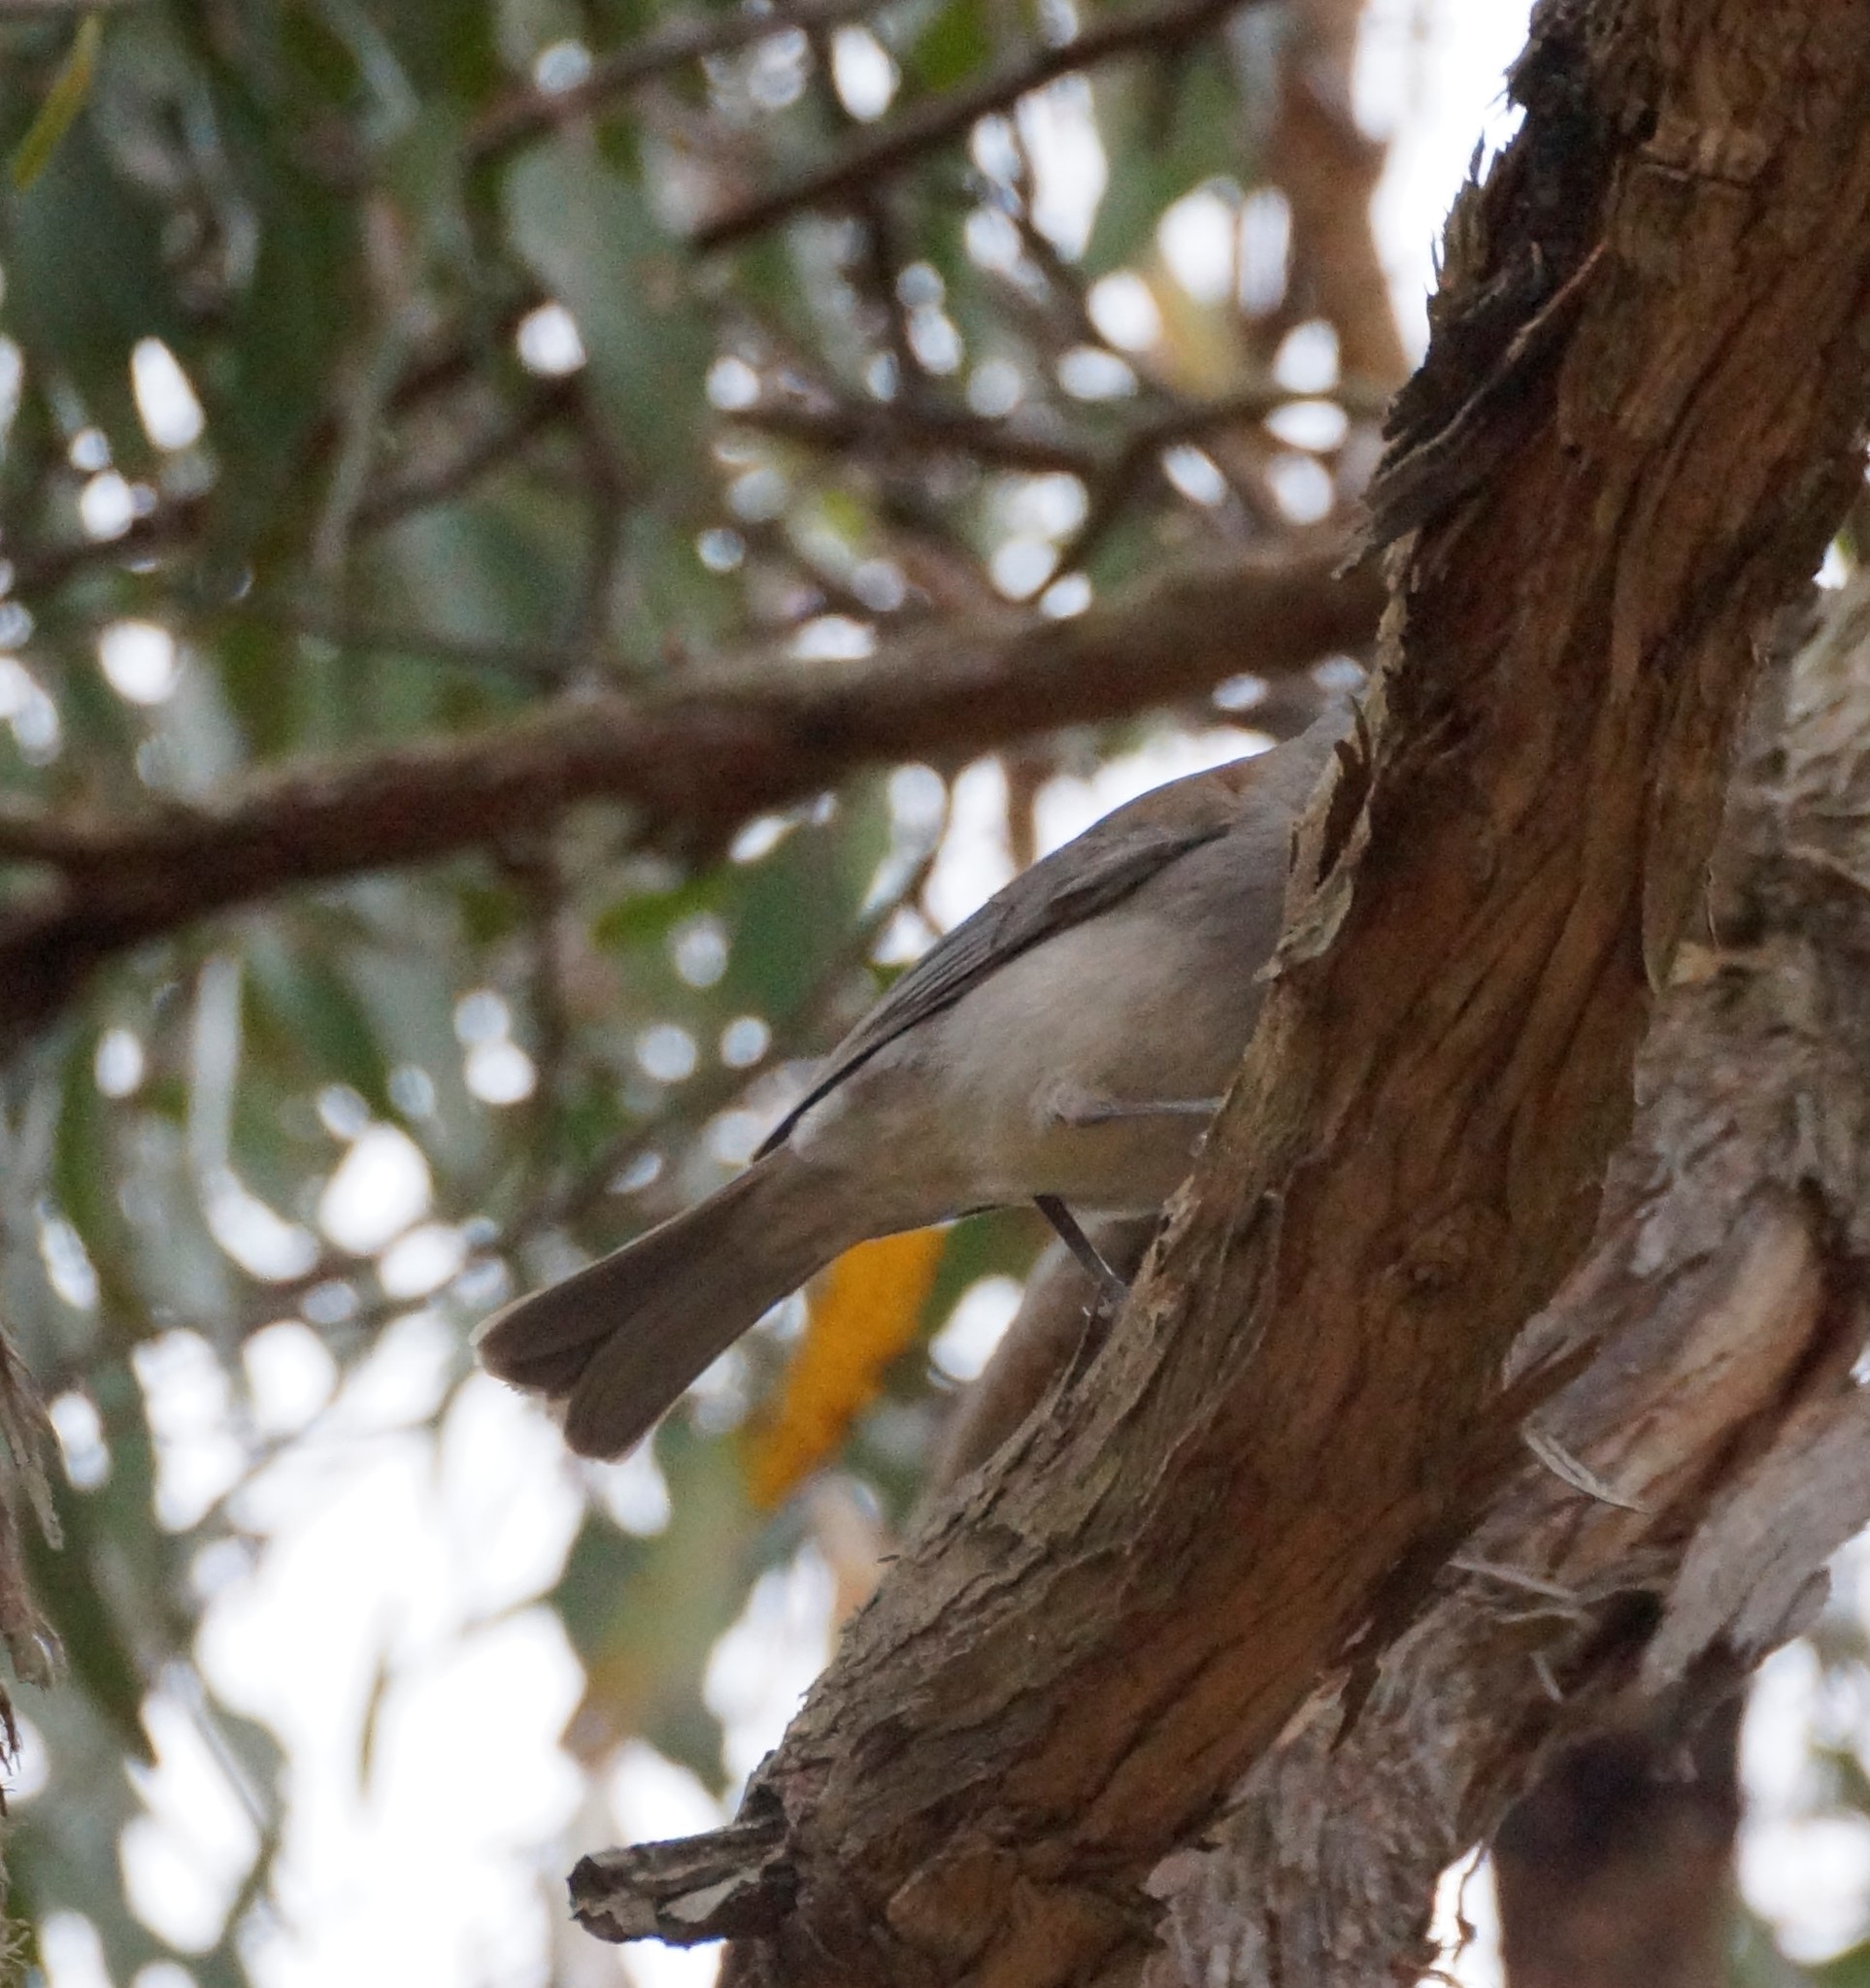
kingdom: Animalia
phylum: Chordata
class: Aves
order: Passeriformes
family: Pachycephalidae
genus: Colluricincla
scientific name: Colluricincla harmonica
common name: Grey shrikethrush
